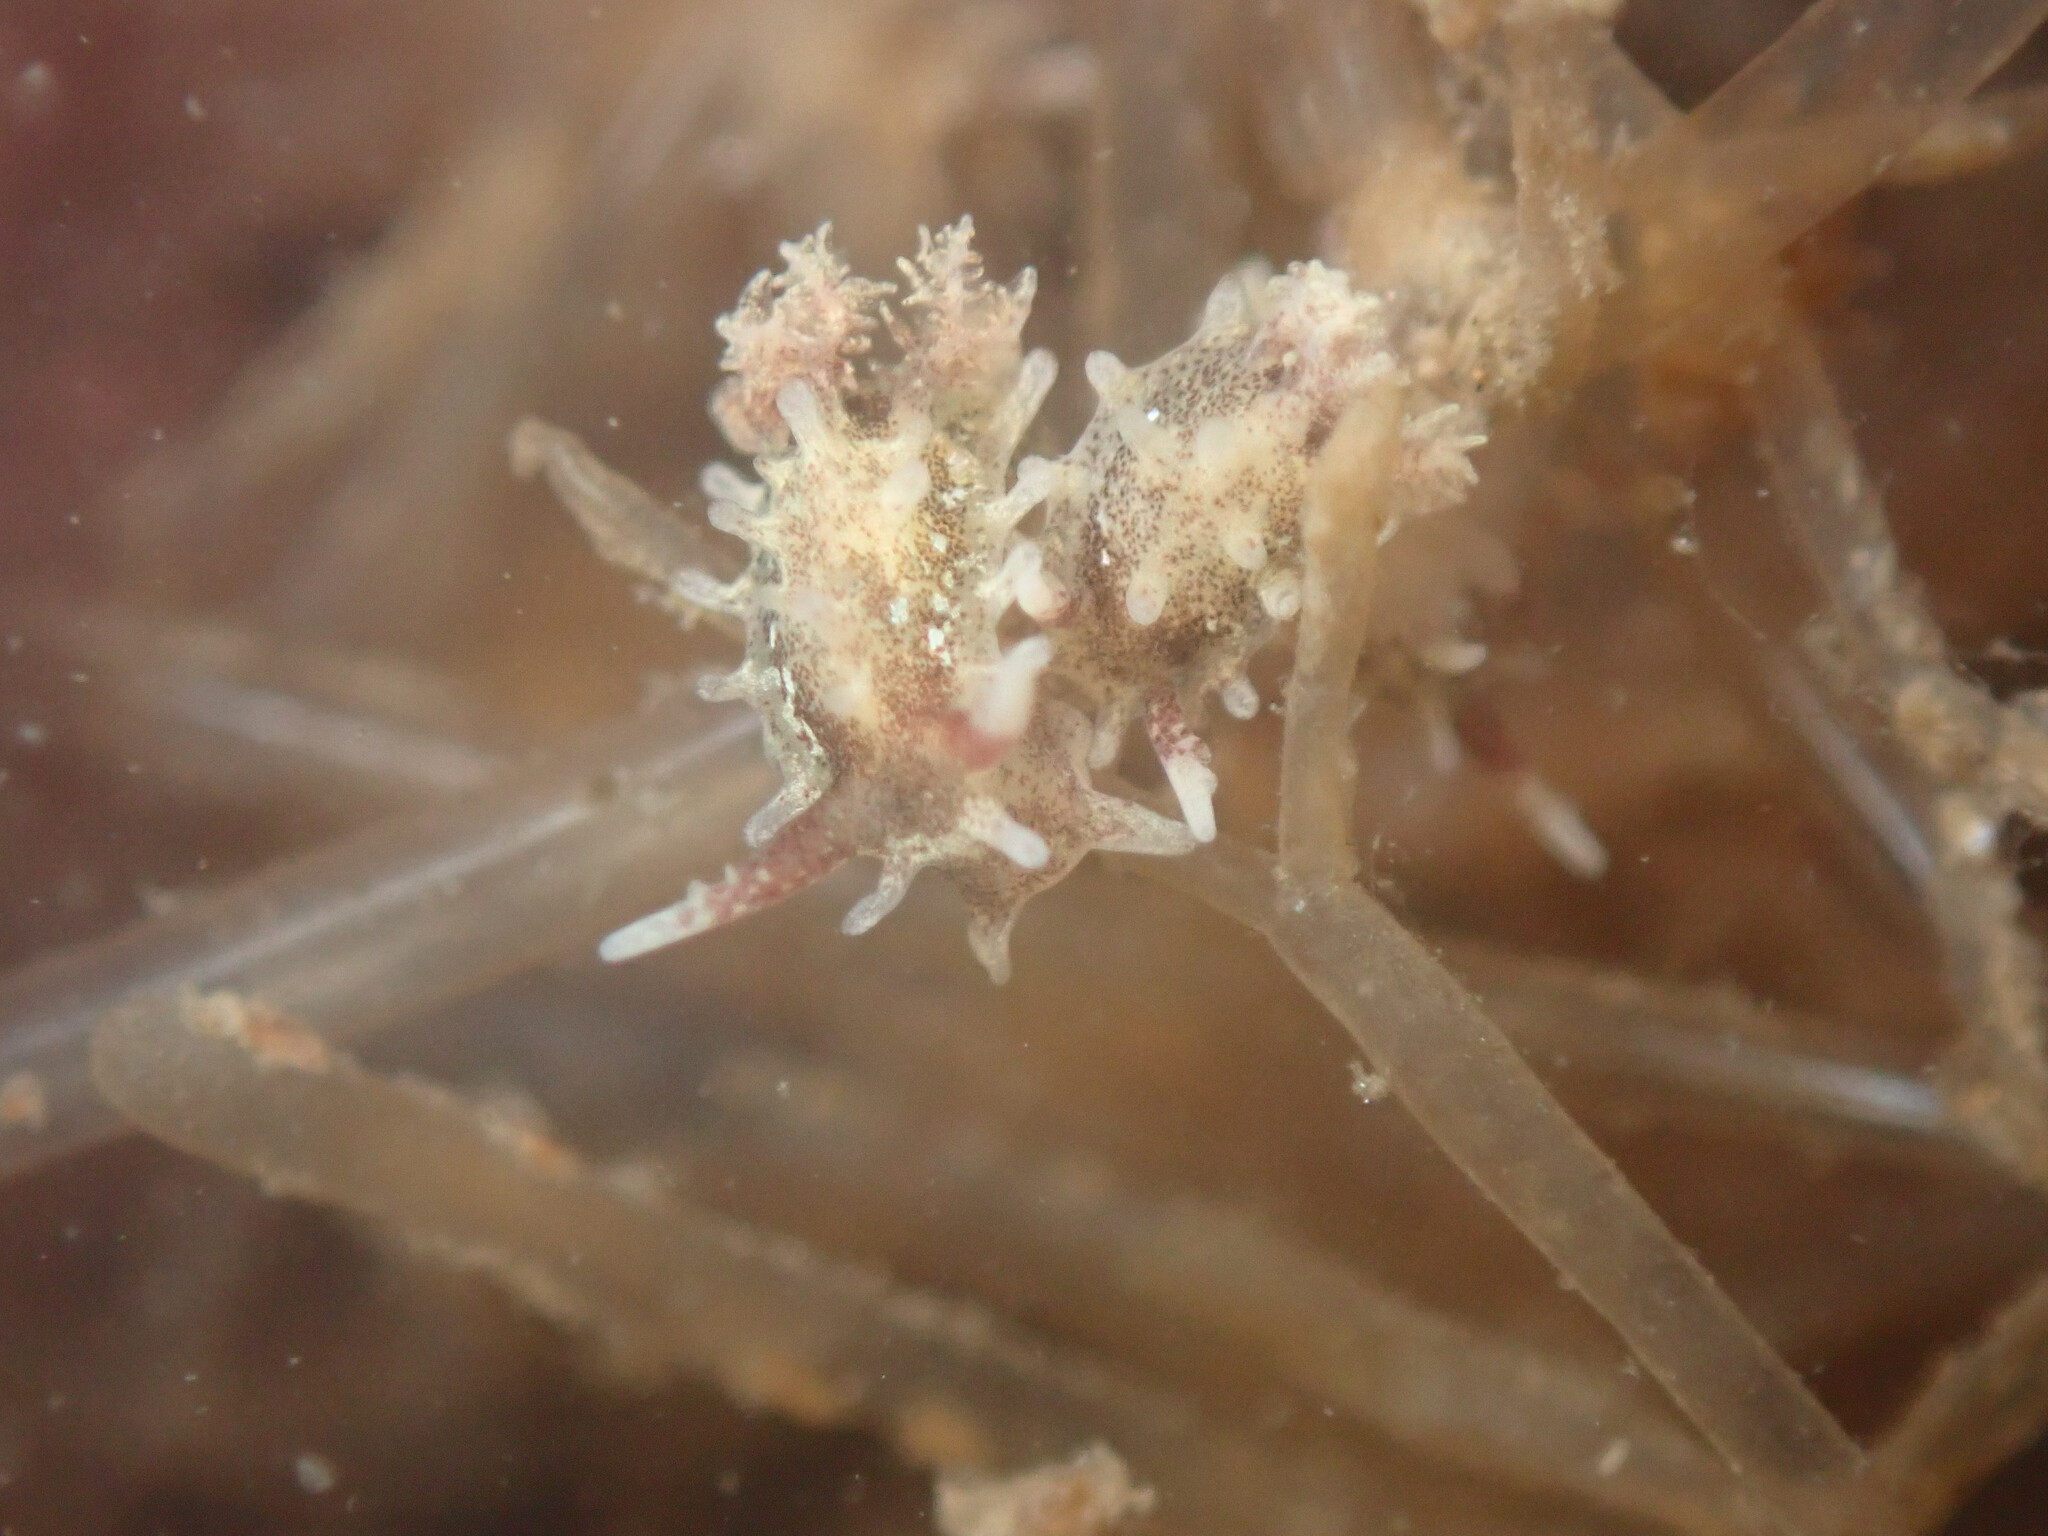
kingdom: Animalia
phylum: Mollusca
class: Gastropoda
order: Nudibranchia
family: Goniodorididae
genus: Okenia
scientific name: Okenia
